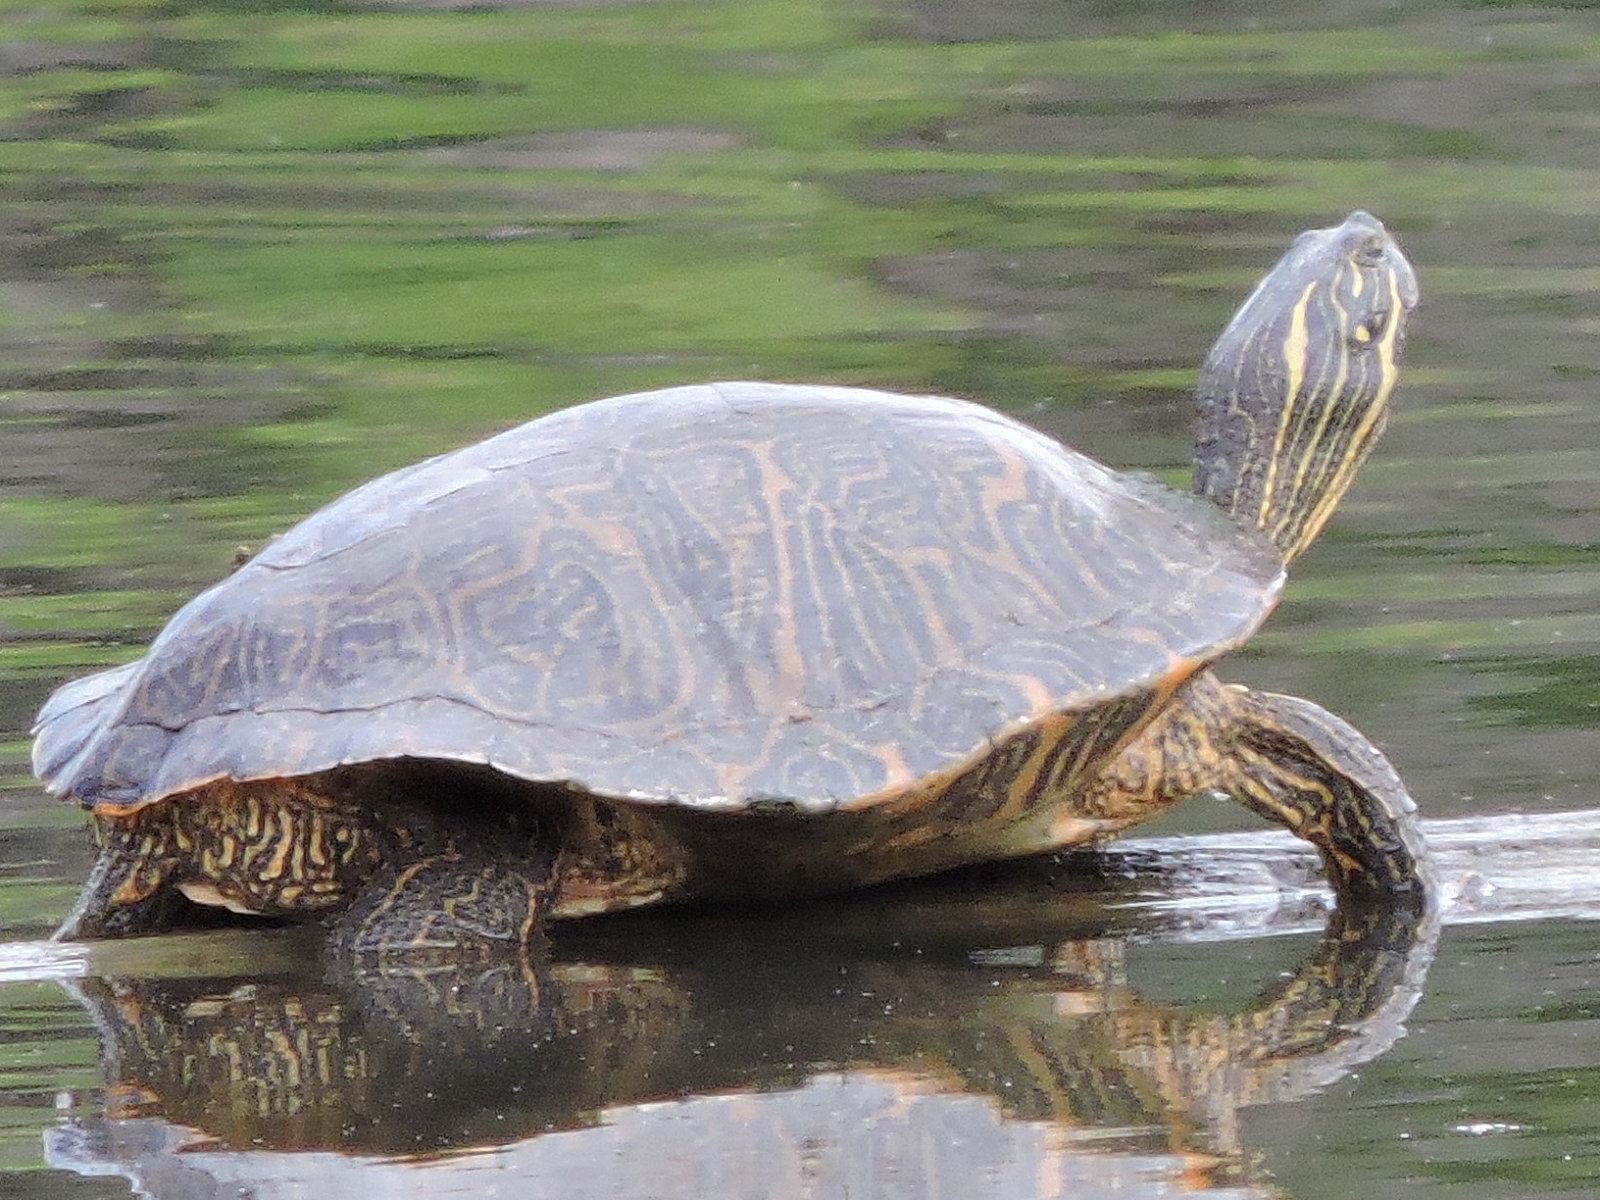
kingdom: Animalia
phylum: Chordata
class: Testudines
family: Emydidae
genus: Pseudemys
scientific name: Pseudemys concinna
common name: Eastern river cooter
